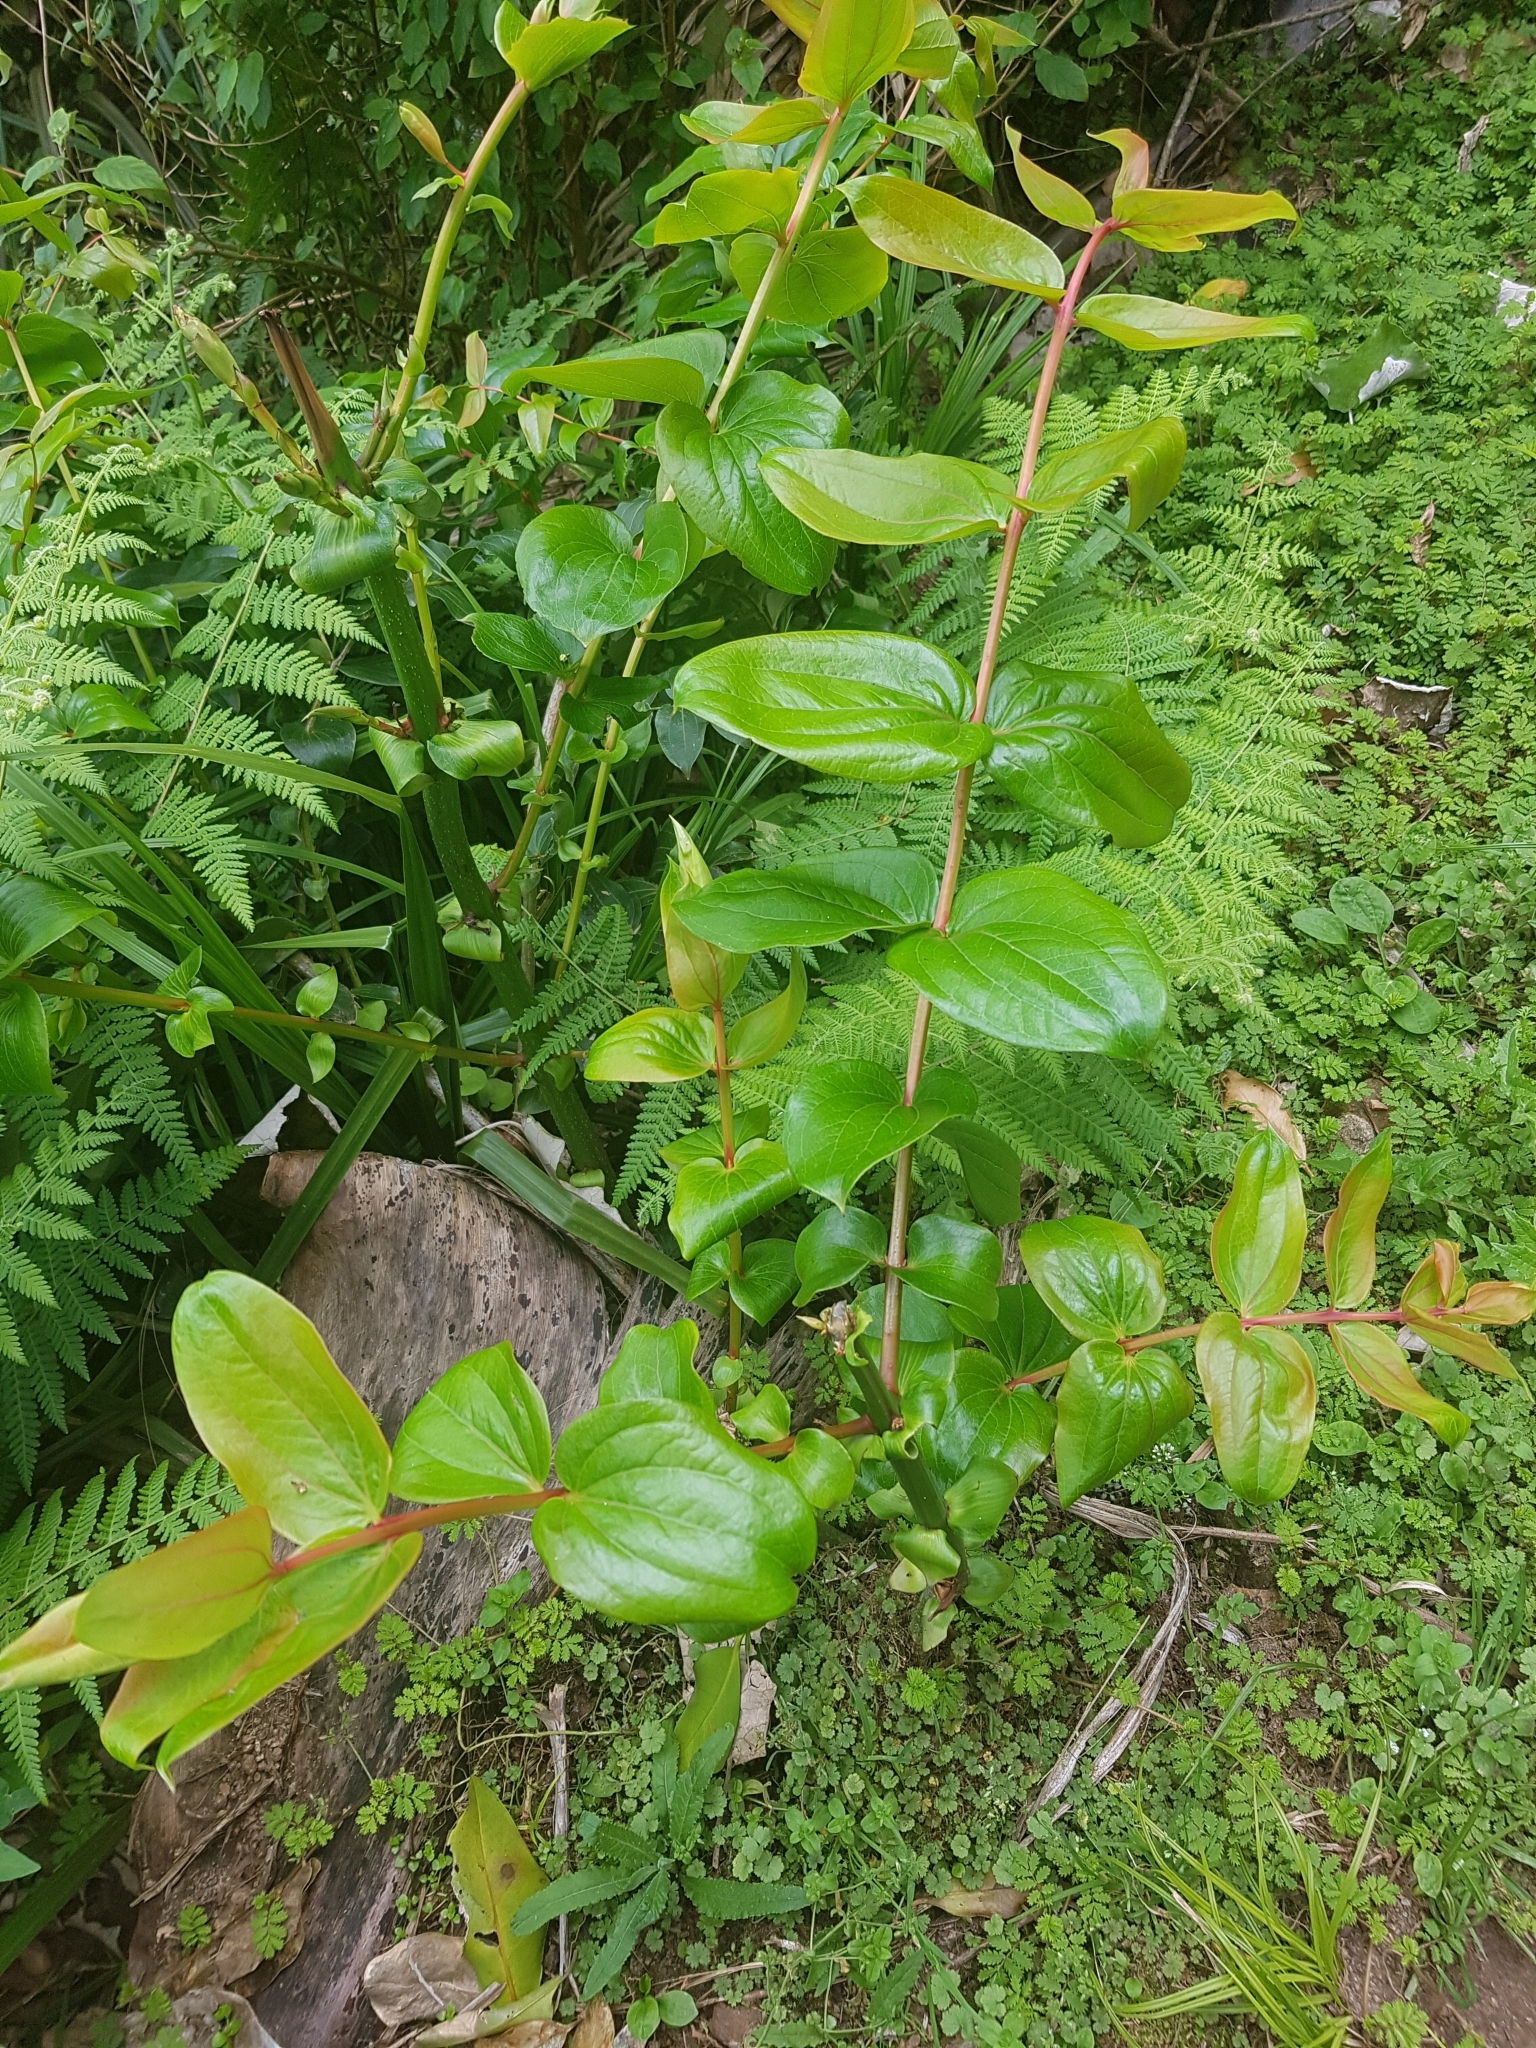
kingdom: Plantae
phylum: Tracheophyta
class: Magnoliopsida
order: Cucurbitales
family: Coriariaceae
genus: Coriaria
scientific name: Coriaria sarmentosa
